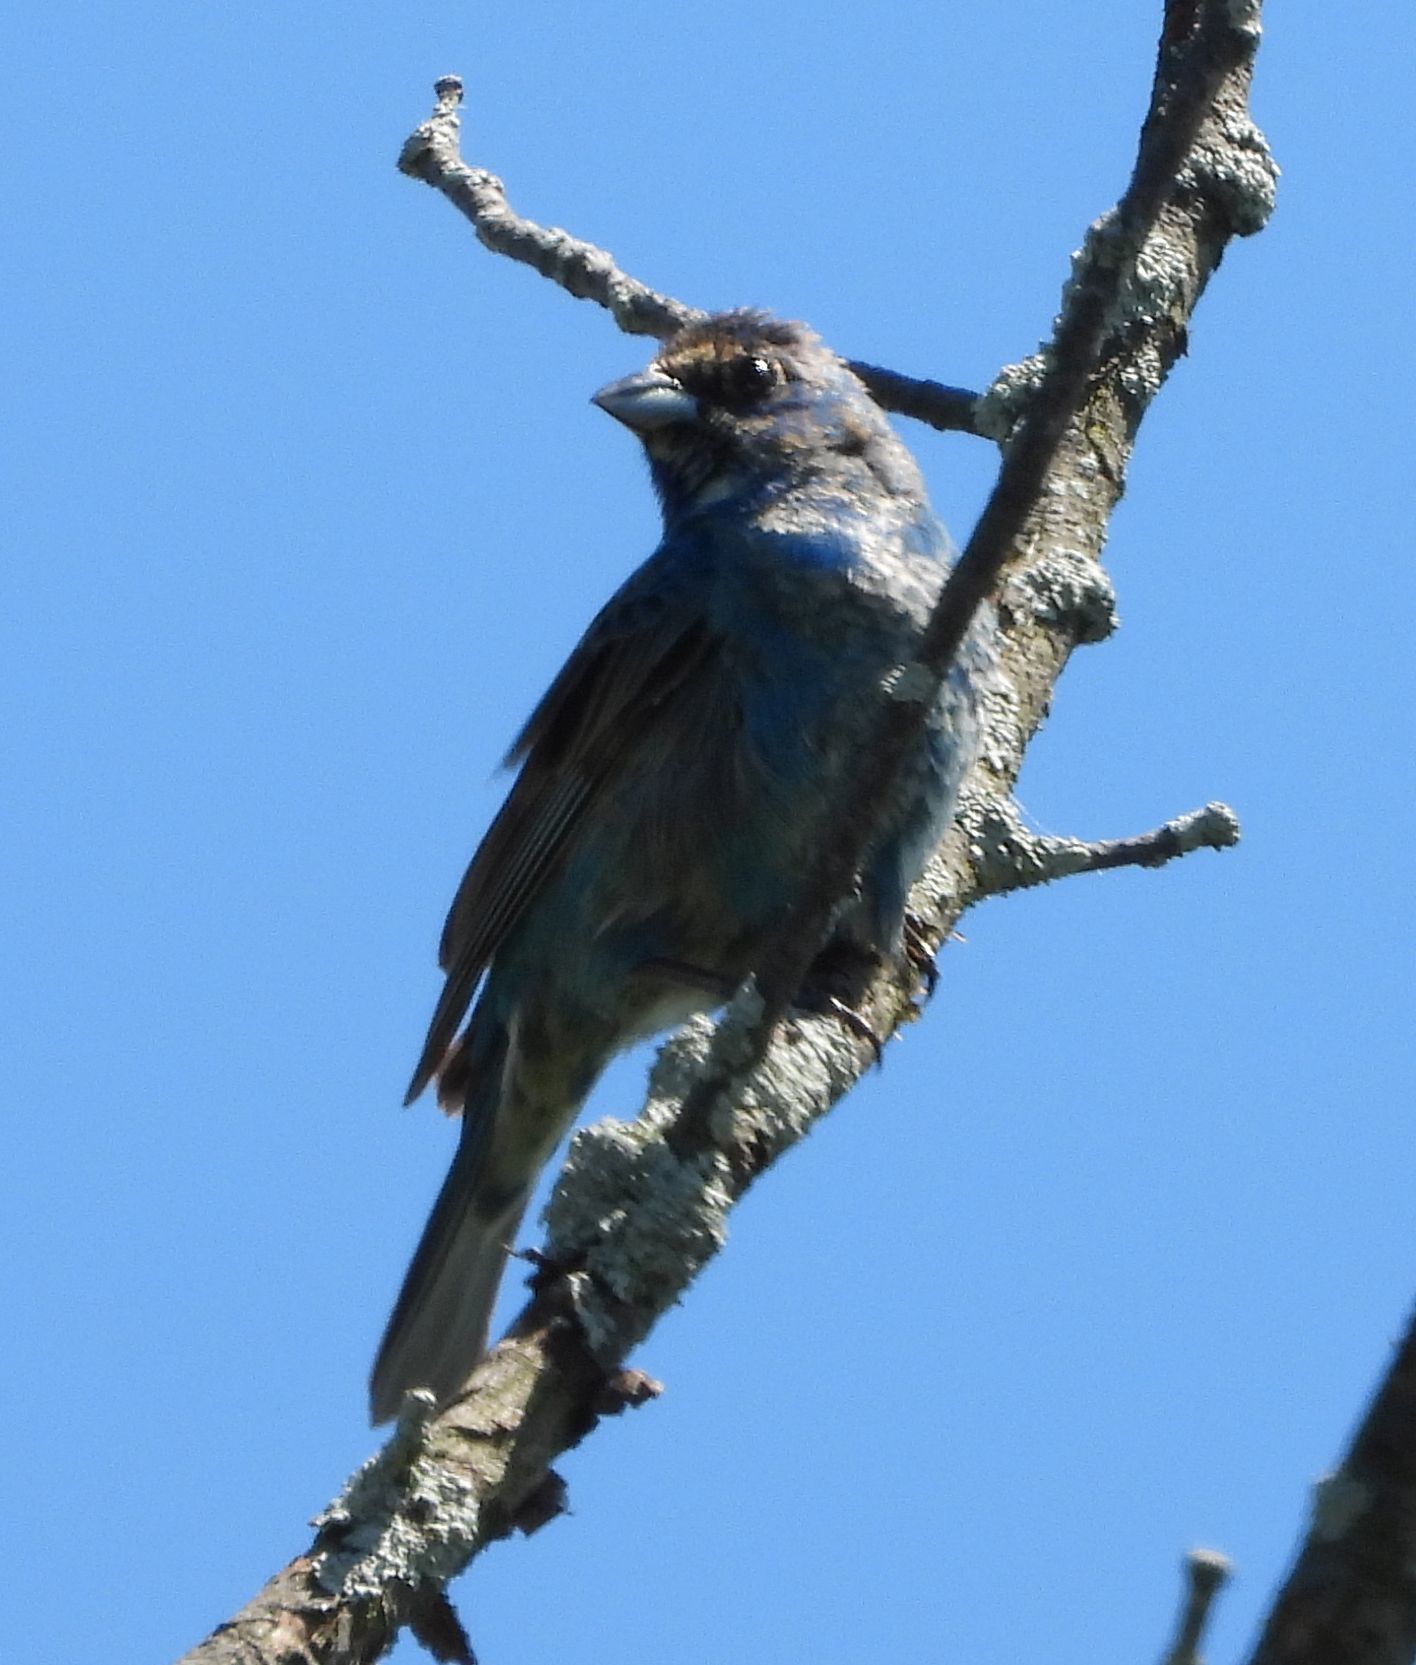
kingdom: Animalia
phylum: Chordata
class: Aves
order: Passeriformes
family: Cardinalidae
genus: Passerina
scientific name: Passerina cyanea
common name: Indigo bunting
